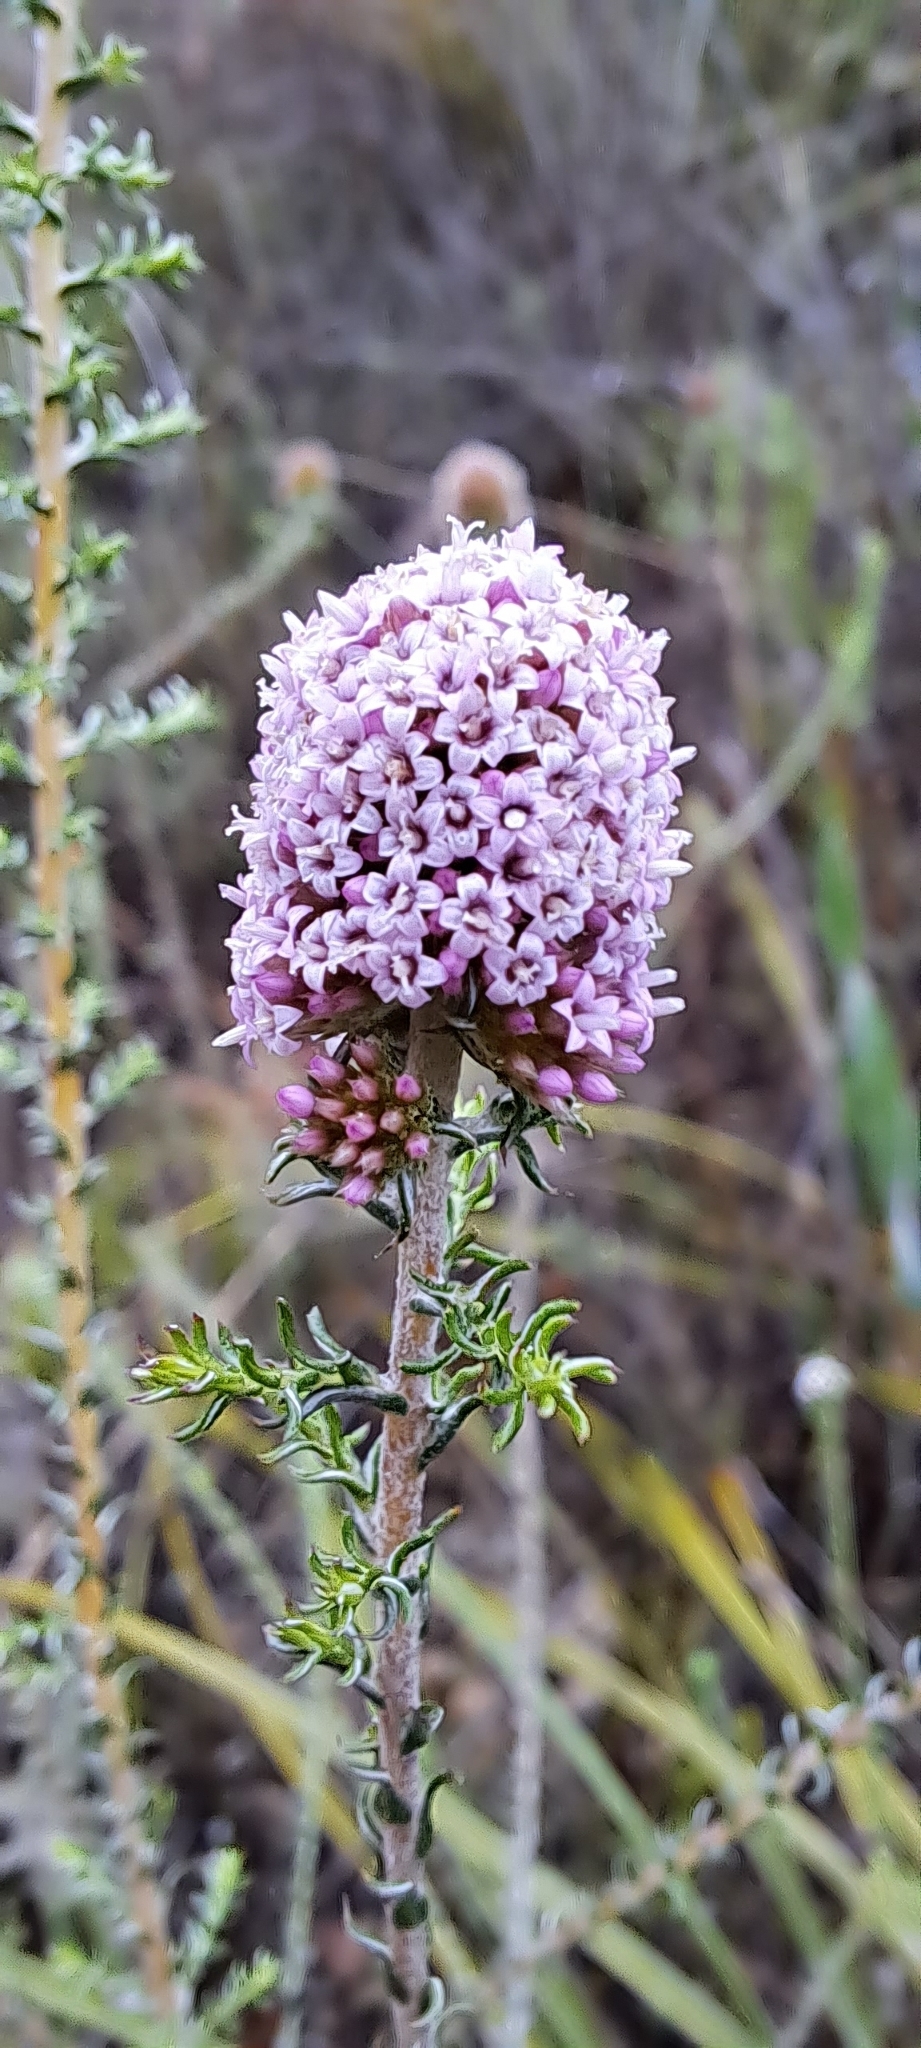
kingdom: Plantae
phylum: Tracheophyta
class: Magnoliopsida
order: Asterales
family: Asteraceae
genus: Stoebe
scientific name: Stoebe capitata
